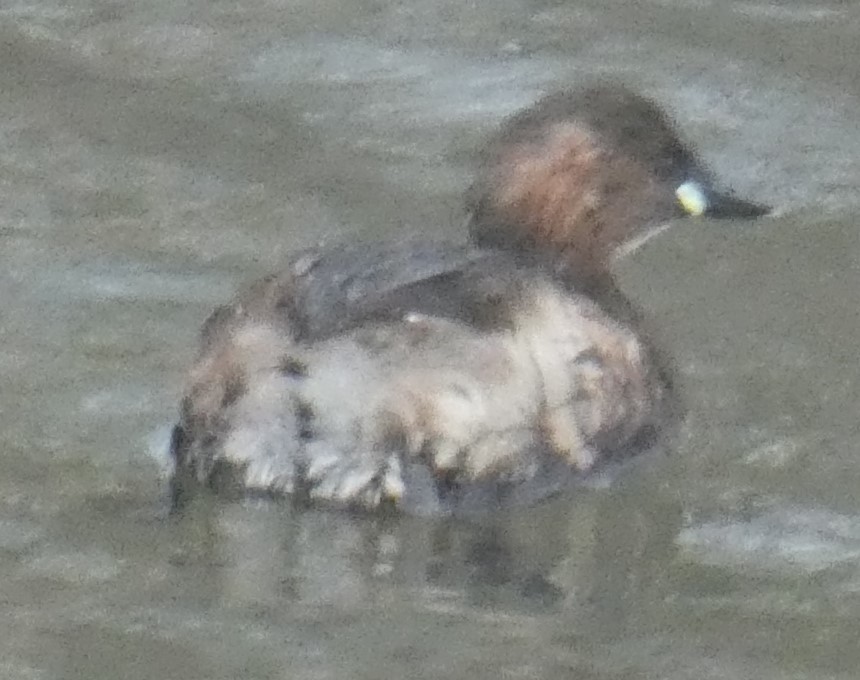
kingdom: Animalia
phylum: Chordata
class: Aves
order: Podicipediformes
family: Podicipedidae
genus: Tachybaptus
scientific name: Tachybaptus ruficollis
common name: Little grebe
